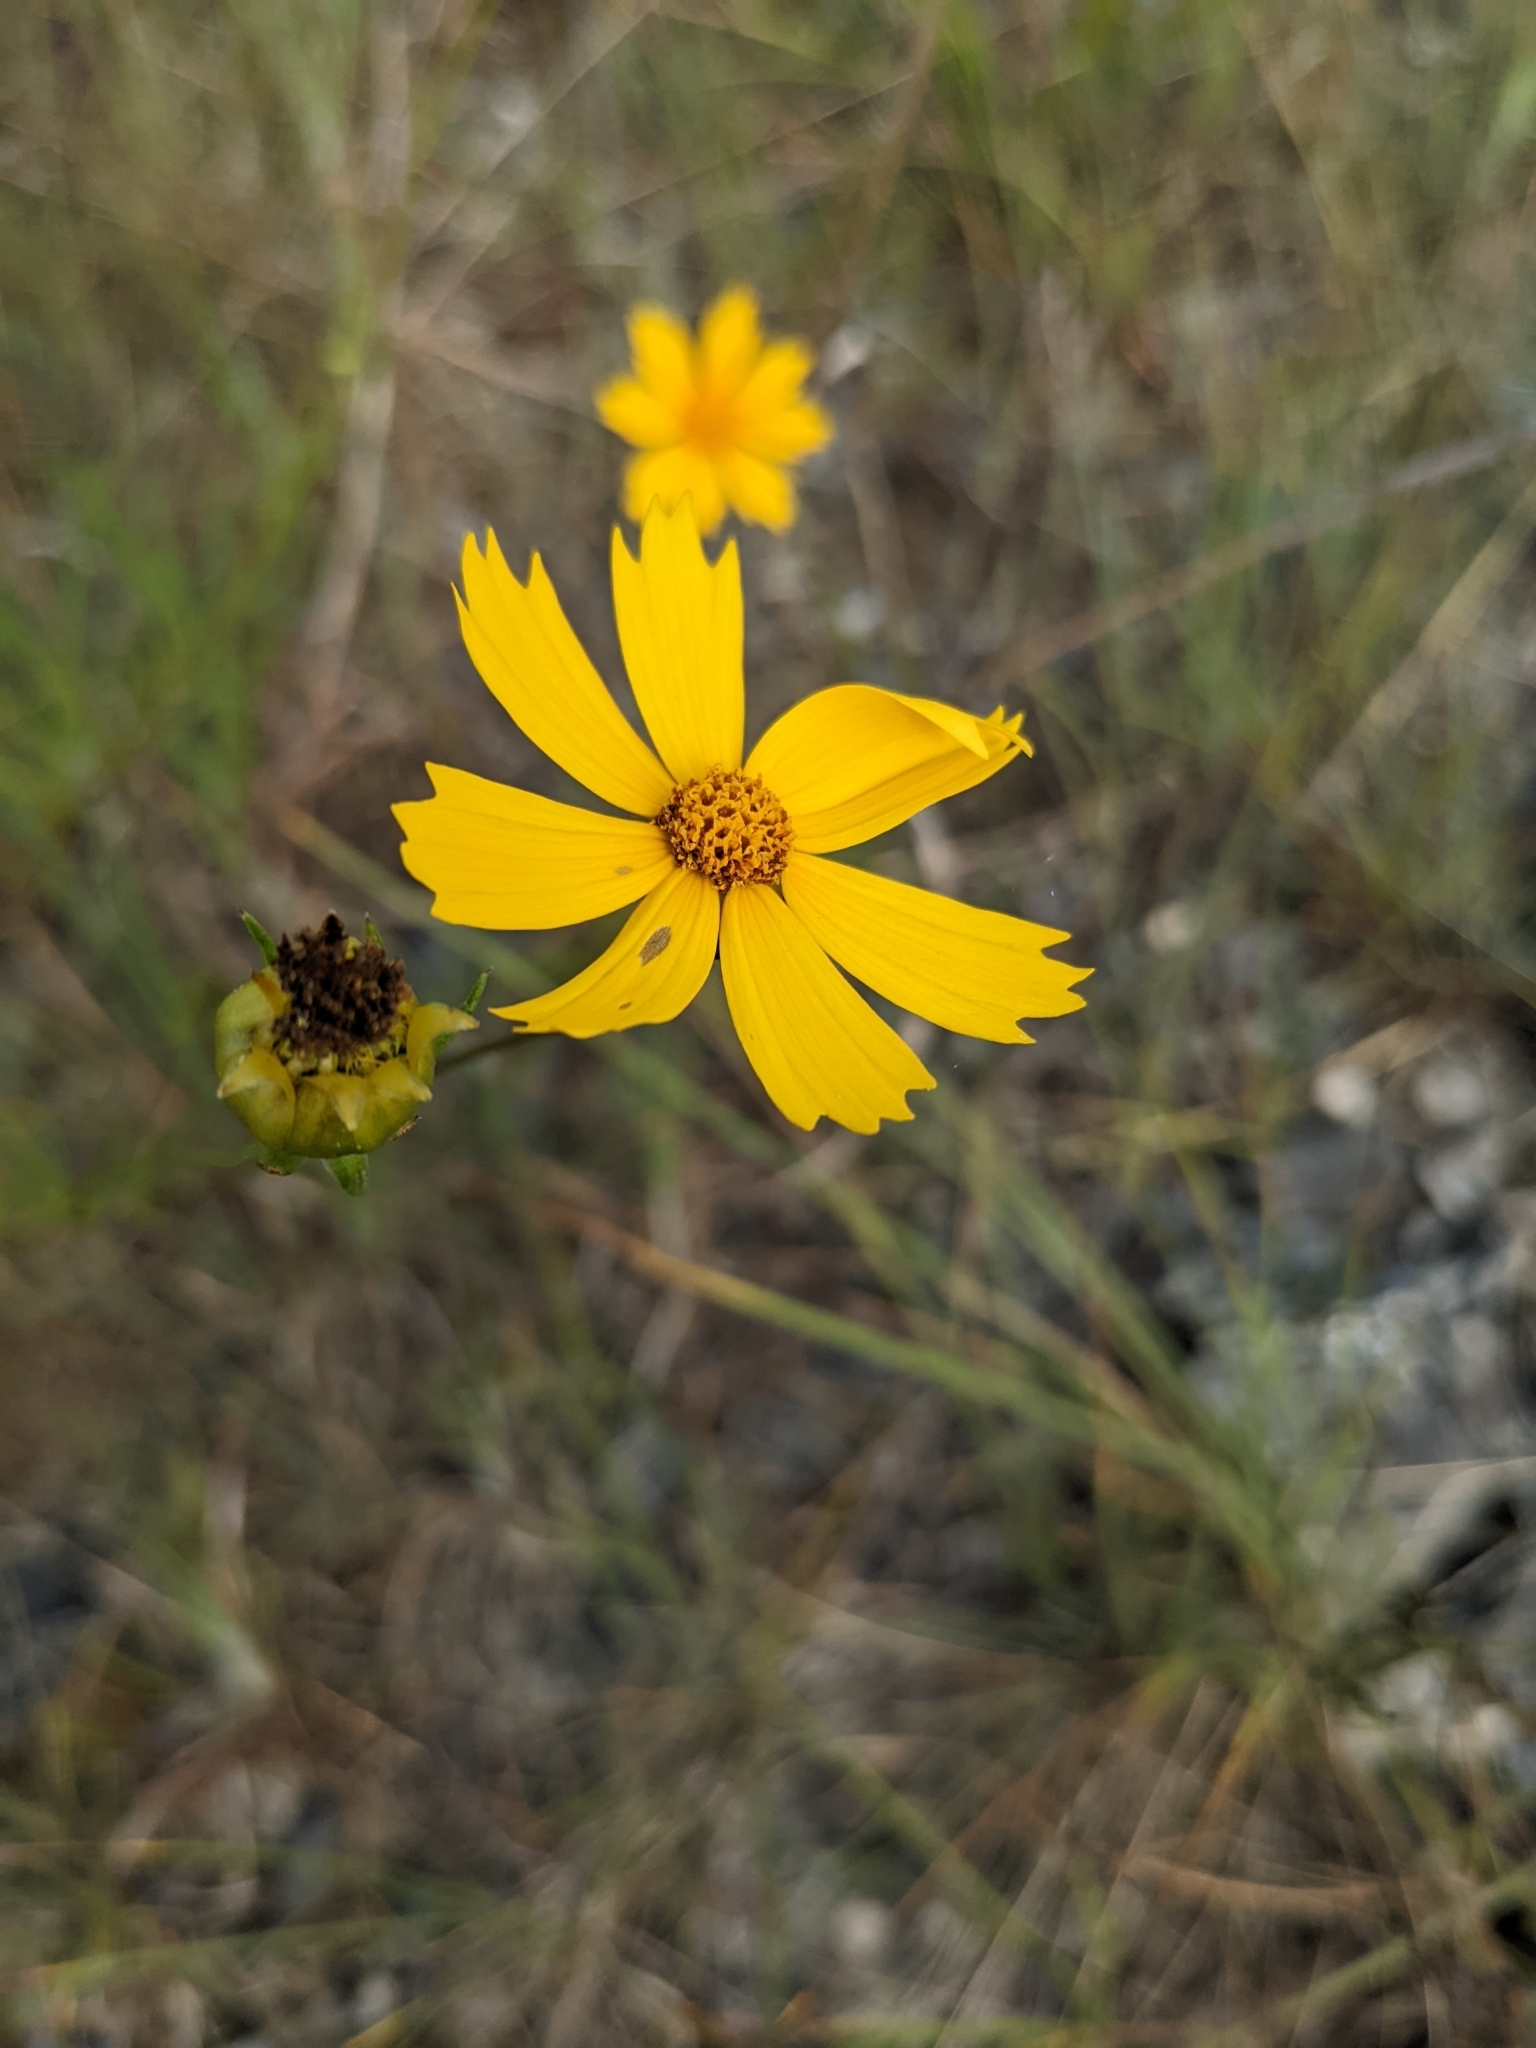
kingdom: Plantae
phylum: Tracheophyta
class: Magnoliopsida
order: Asterales
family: Asteraceae
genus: Coreopsis
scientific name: Coreopsis grandiflora
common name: Large-flowered tickseed
